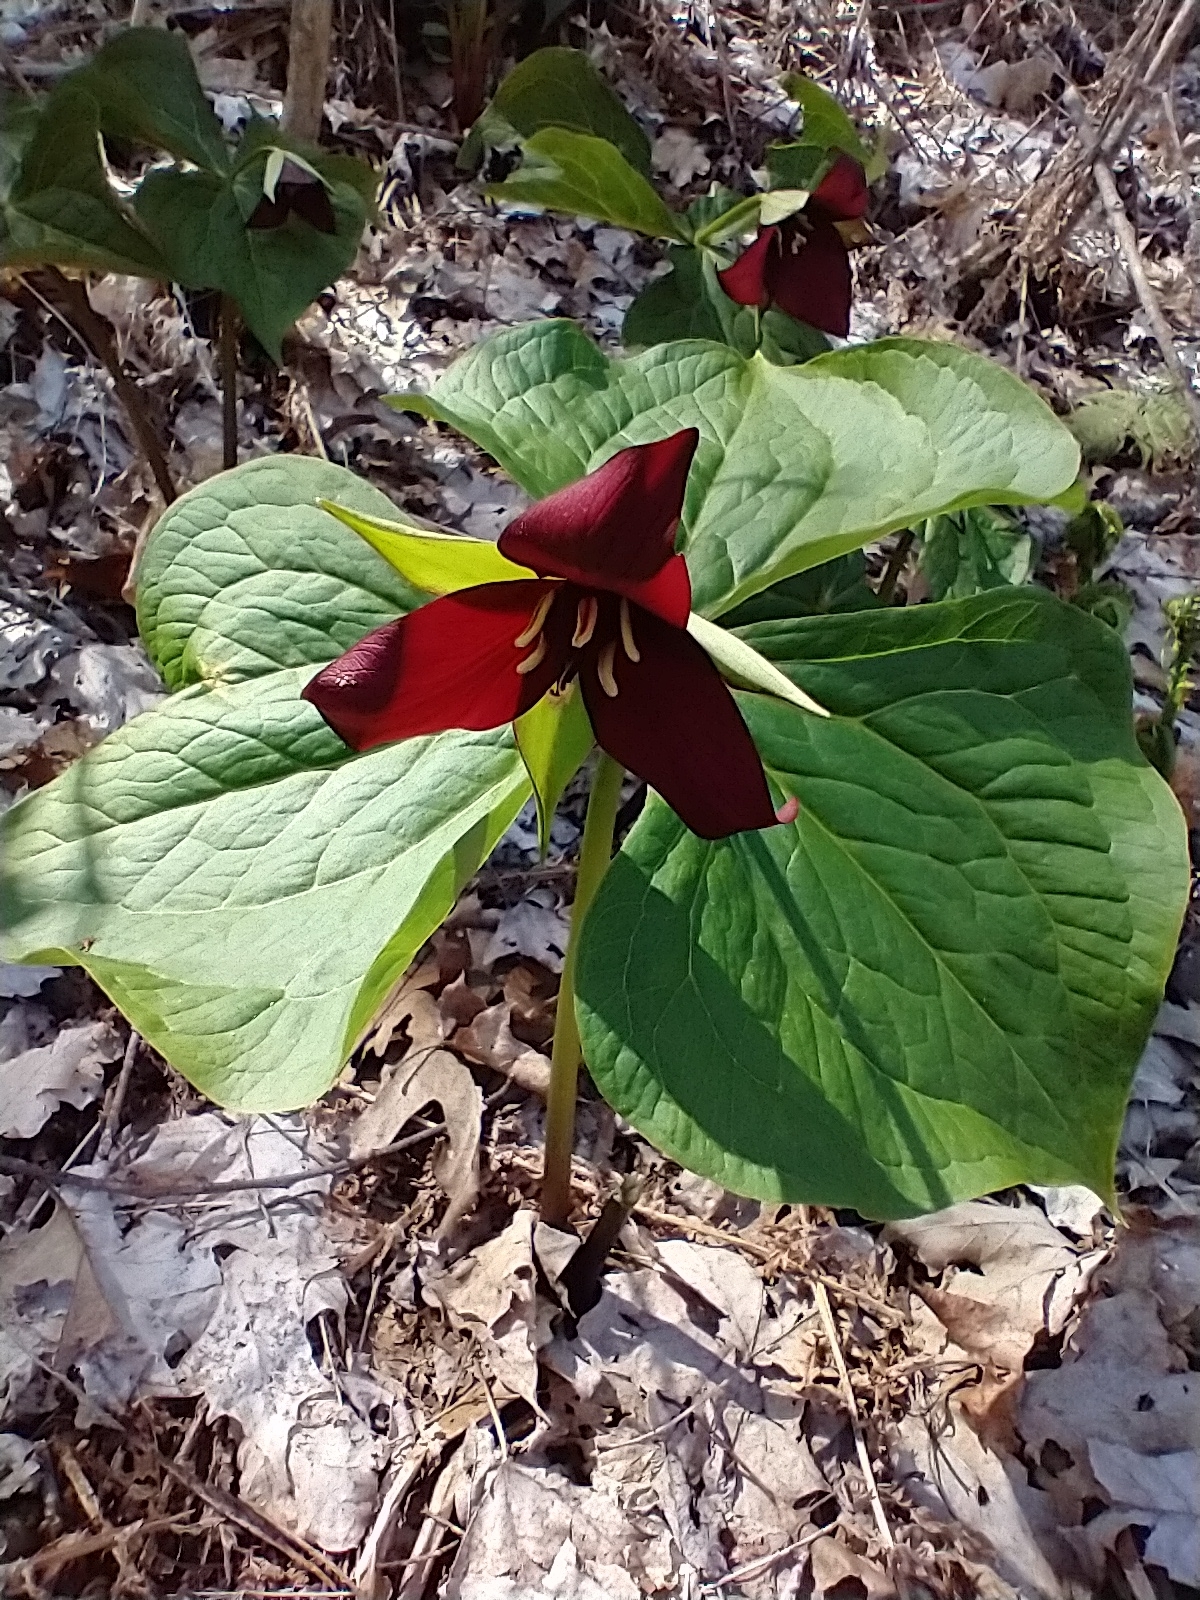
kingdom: Plantae
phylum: Tracheophyta
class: Liliopsida
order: Liliales
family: Melanthiaceae
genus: Trillium
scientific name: Trillium erectum
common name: Purple trillium
